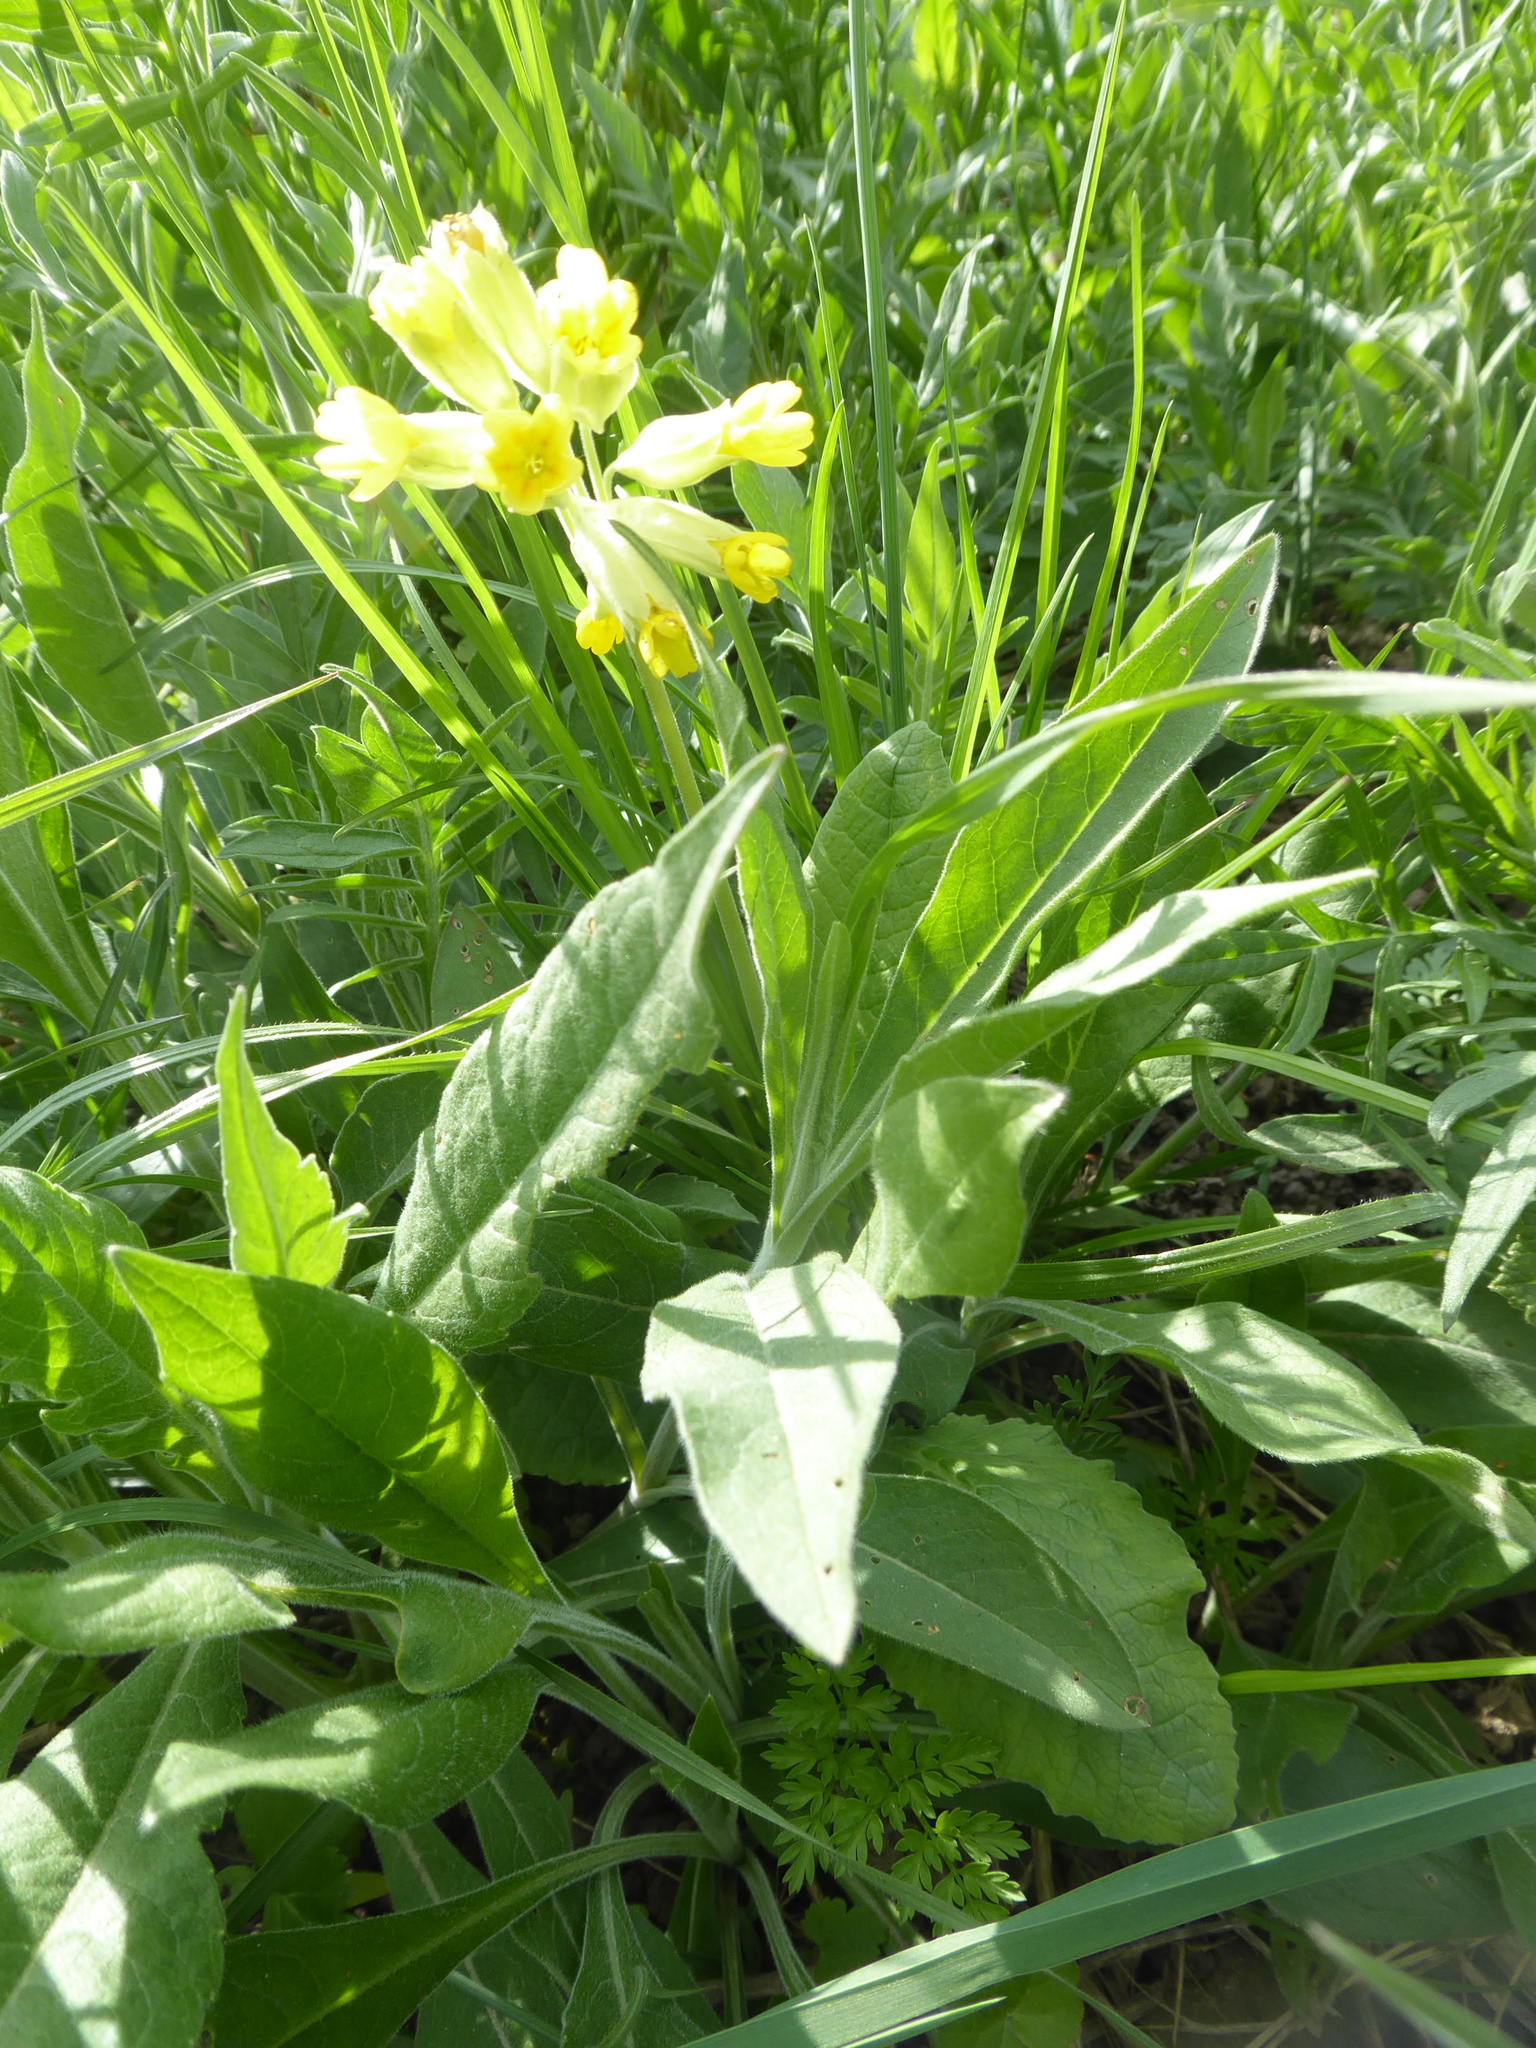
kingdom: Plantae
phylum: Tracheophyta
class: Magnoliopsida
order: Ericales
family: Primulaceae
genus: Primula
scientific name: Primula veris
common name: Cowslip
